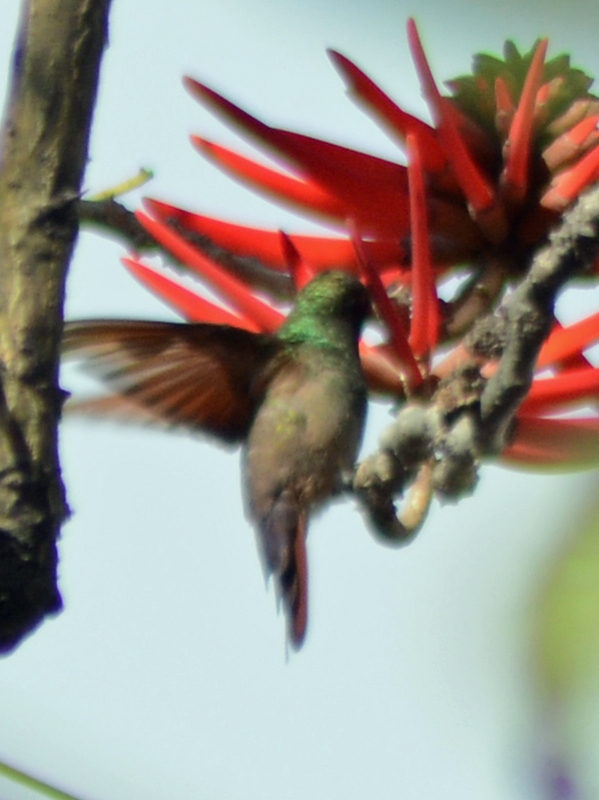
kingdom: Animalia
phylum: Chordata
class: Aves
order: Apodiformes
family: Trochilidae
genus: Saucerottia
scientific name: Saucerottia beryllina
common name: Berylline hummingbird
